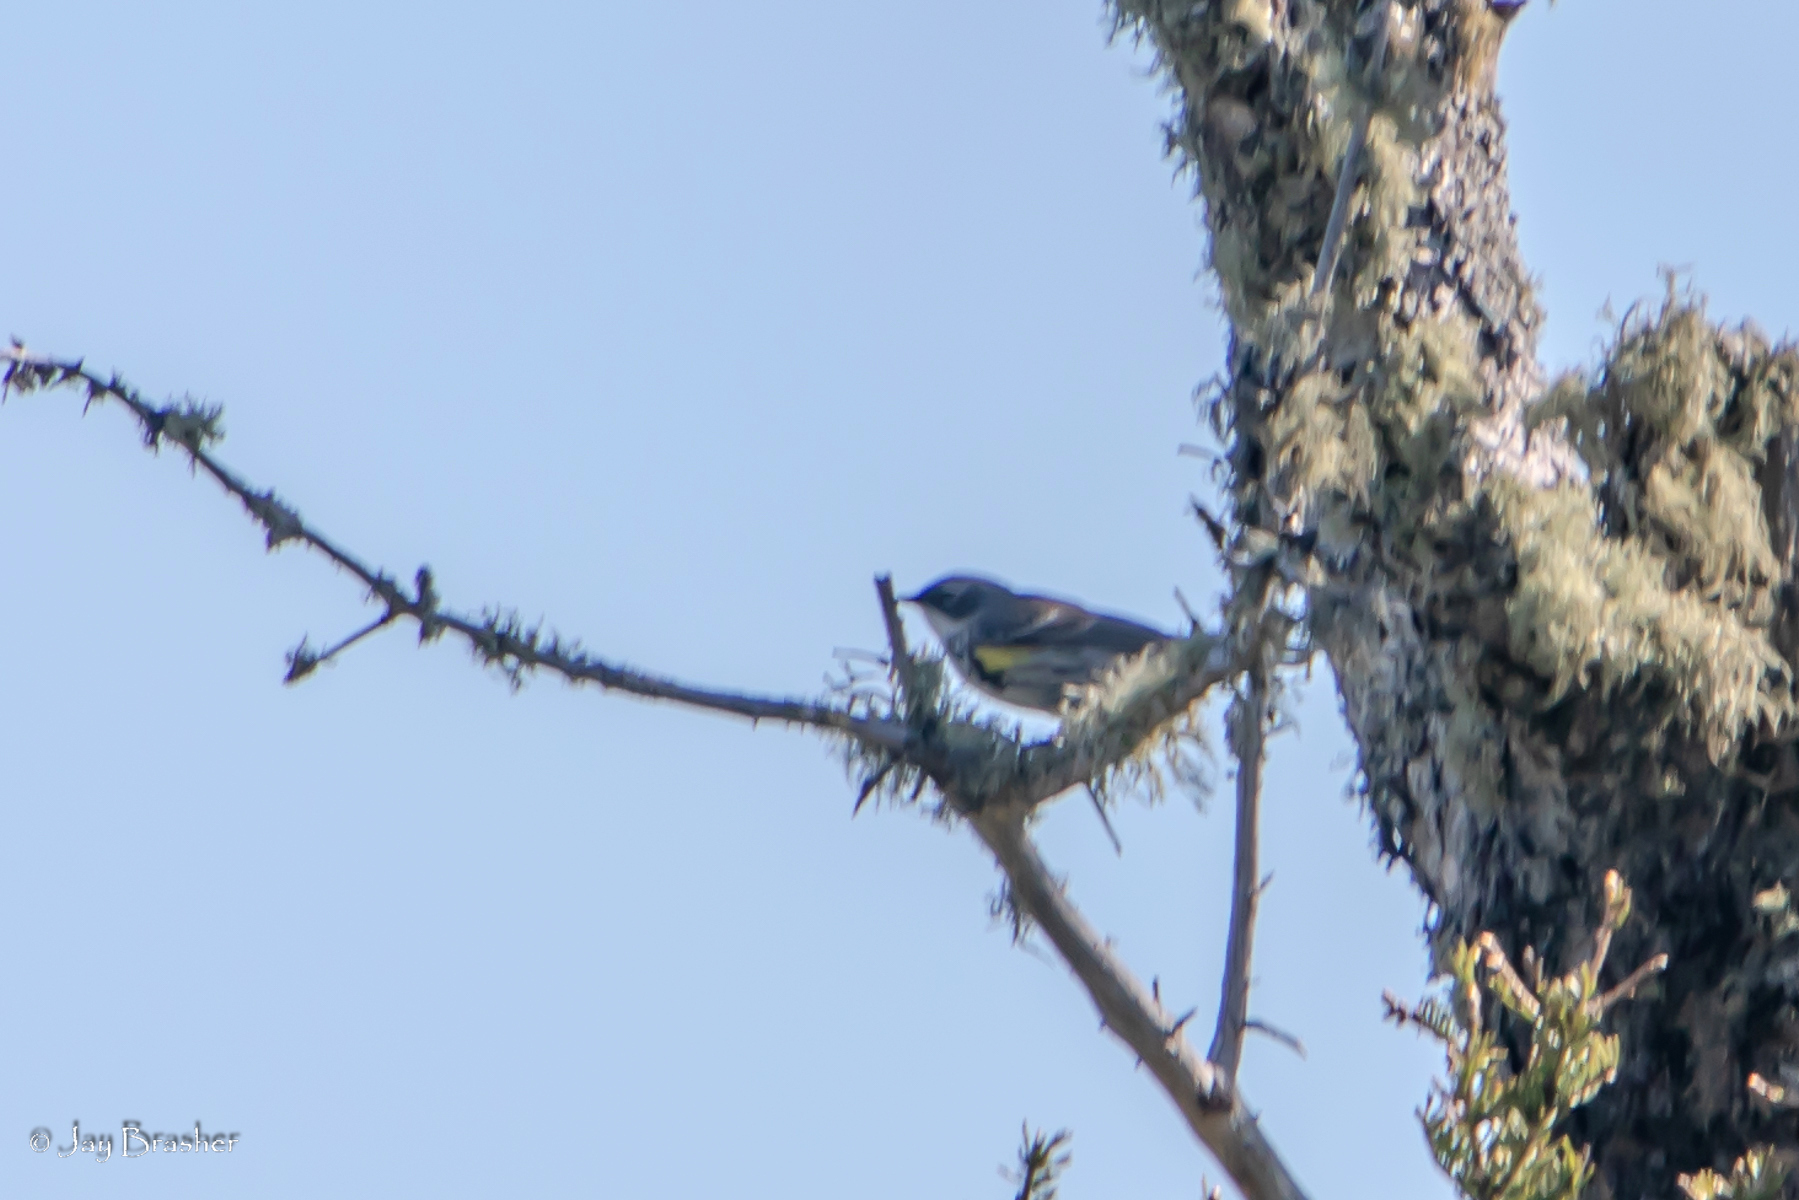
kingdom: Animalia
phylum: Chordata
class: Aves
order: Passeriformes
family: Parulidae
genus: Setophaga
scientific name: Setophaga coronata
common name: Myrtle warbler
